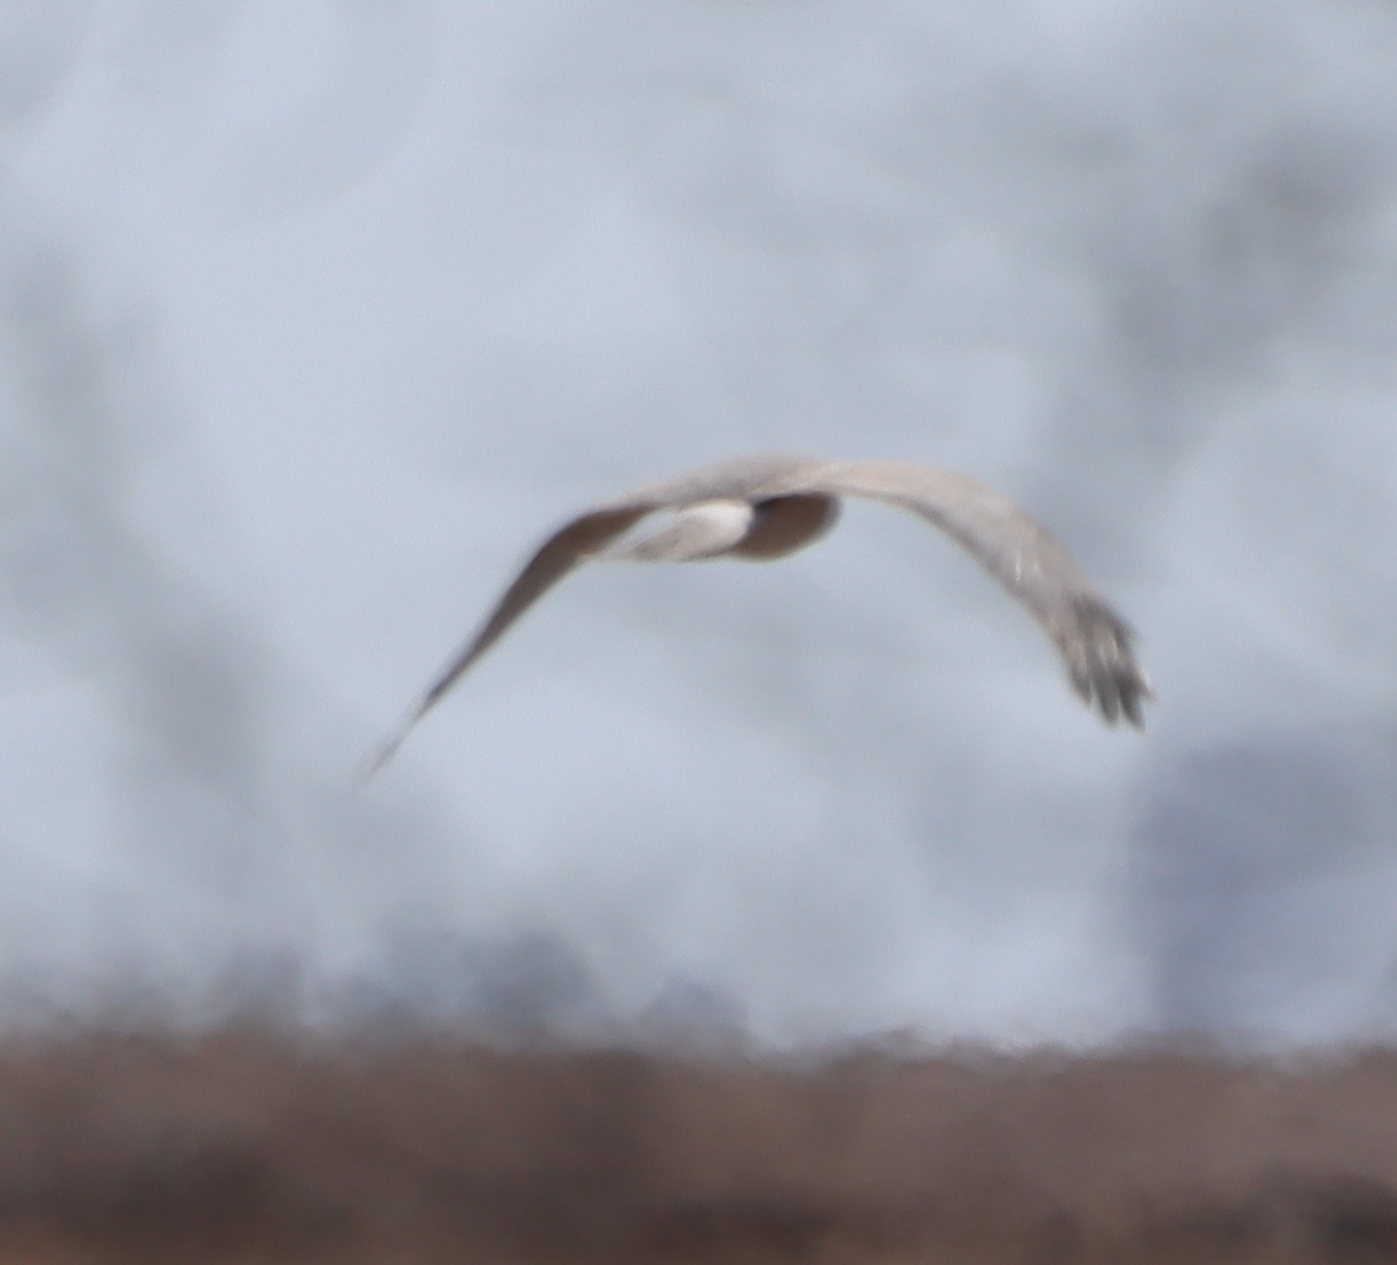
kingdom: Animalia
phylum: Chordata
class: Aves
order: Accipitriformes
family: Accipitridae
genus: Circus
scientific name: Circus cyaneus
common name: Hen harrier
